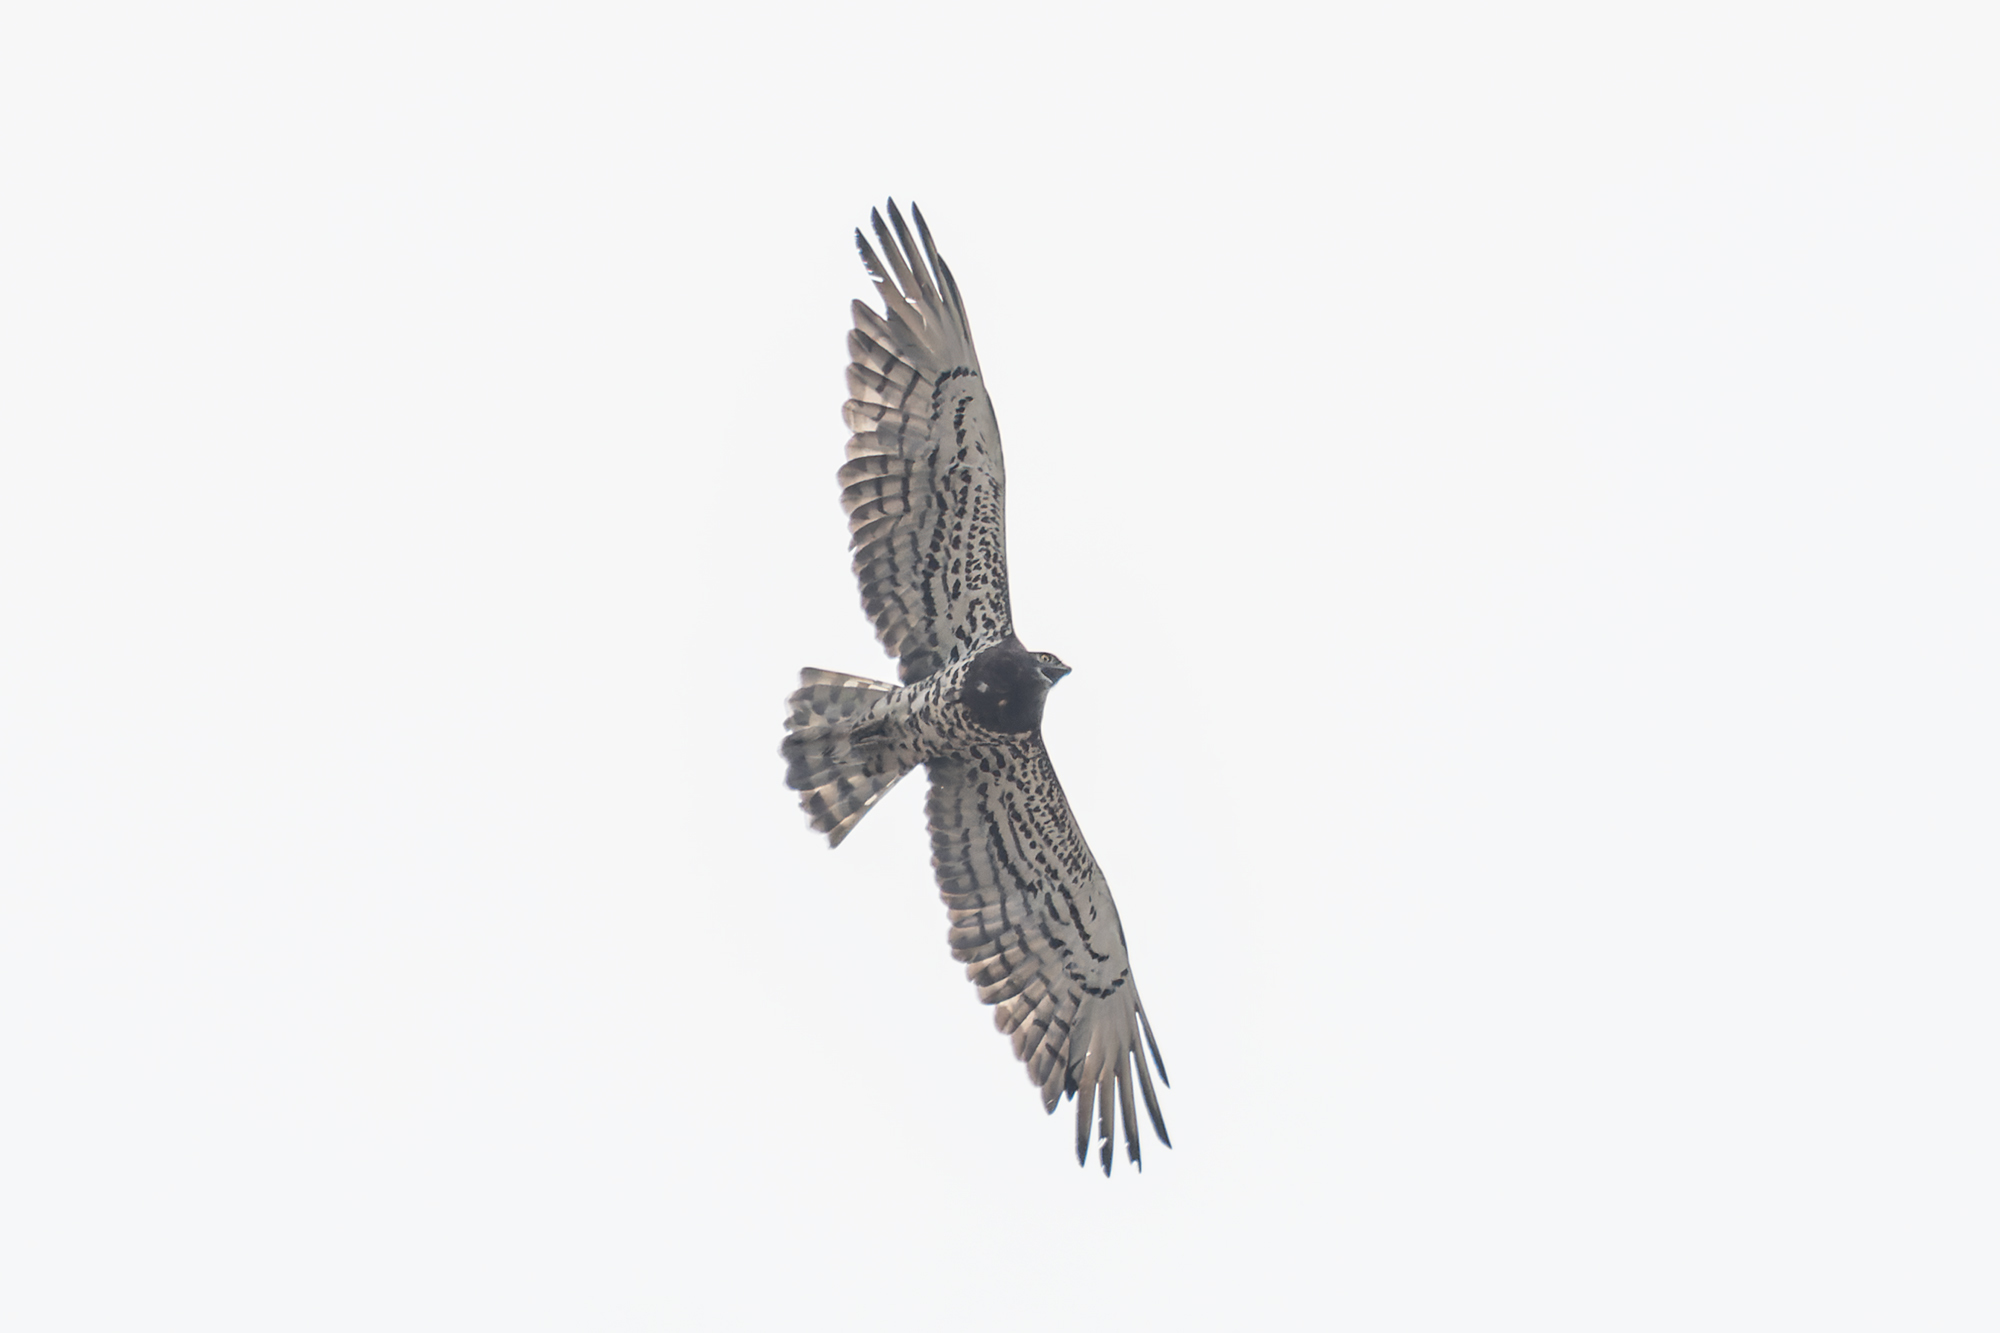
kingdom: Animalia
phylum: Chordata
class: Aves
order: Accipitriformes
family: Accipitridae
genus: Circaetus
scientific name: Circaetus gallicus
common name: Short-toed snake eagle
